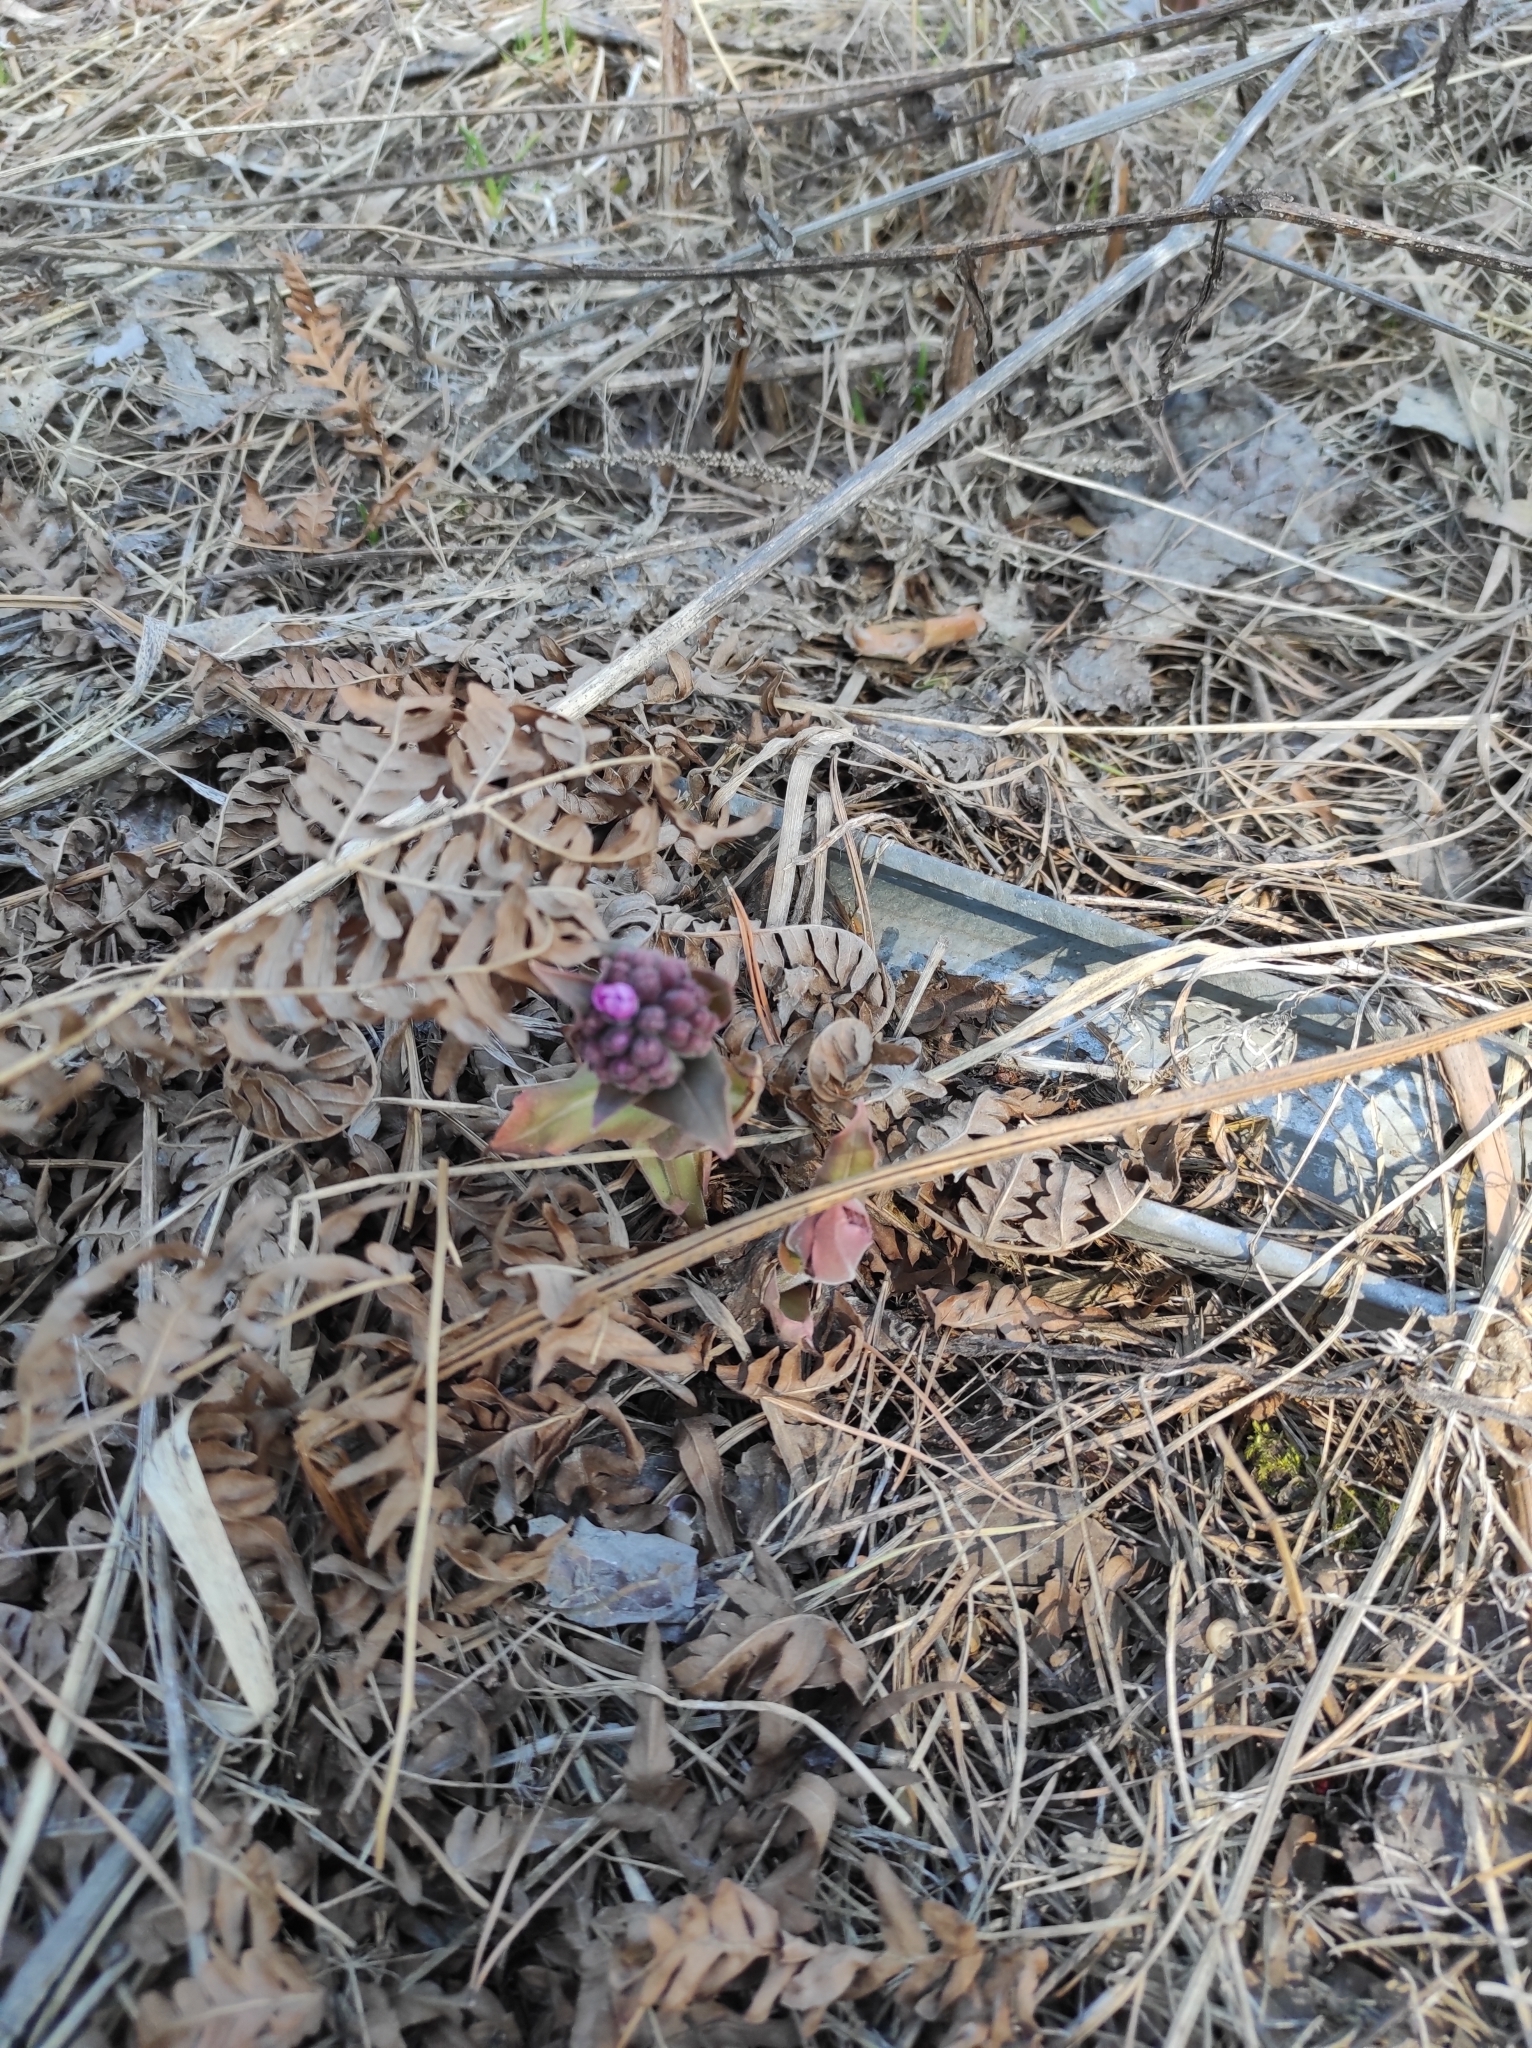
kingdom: Plantae
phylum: Tracheophyta
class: Magnoliopsida
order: Boraginales
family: Boraginaceae
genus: Pulmonaria
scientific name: Pulmonaria mollis
